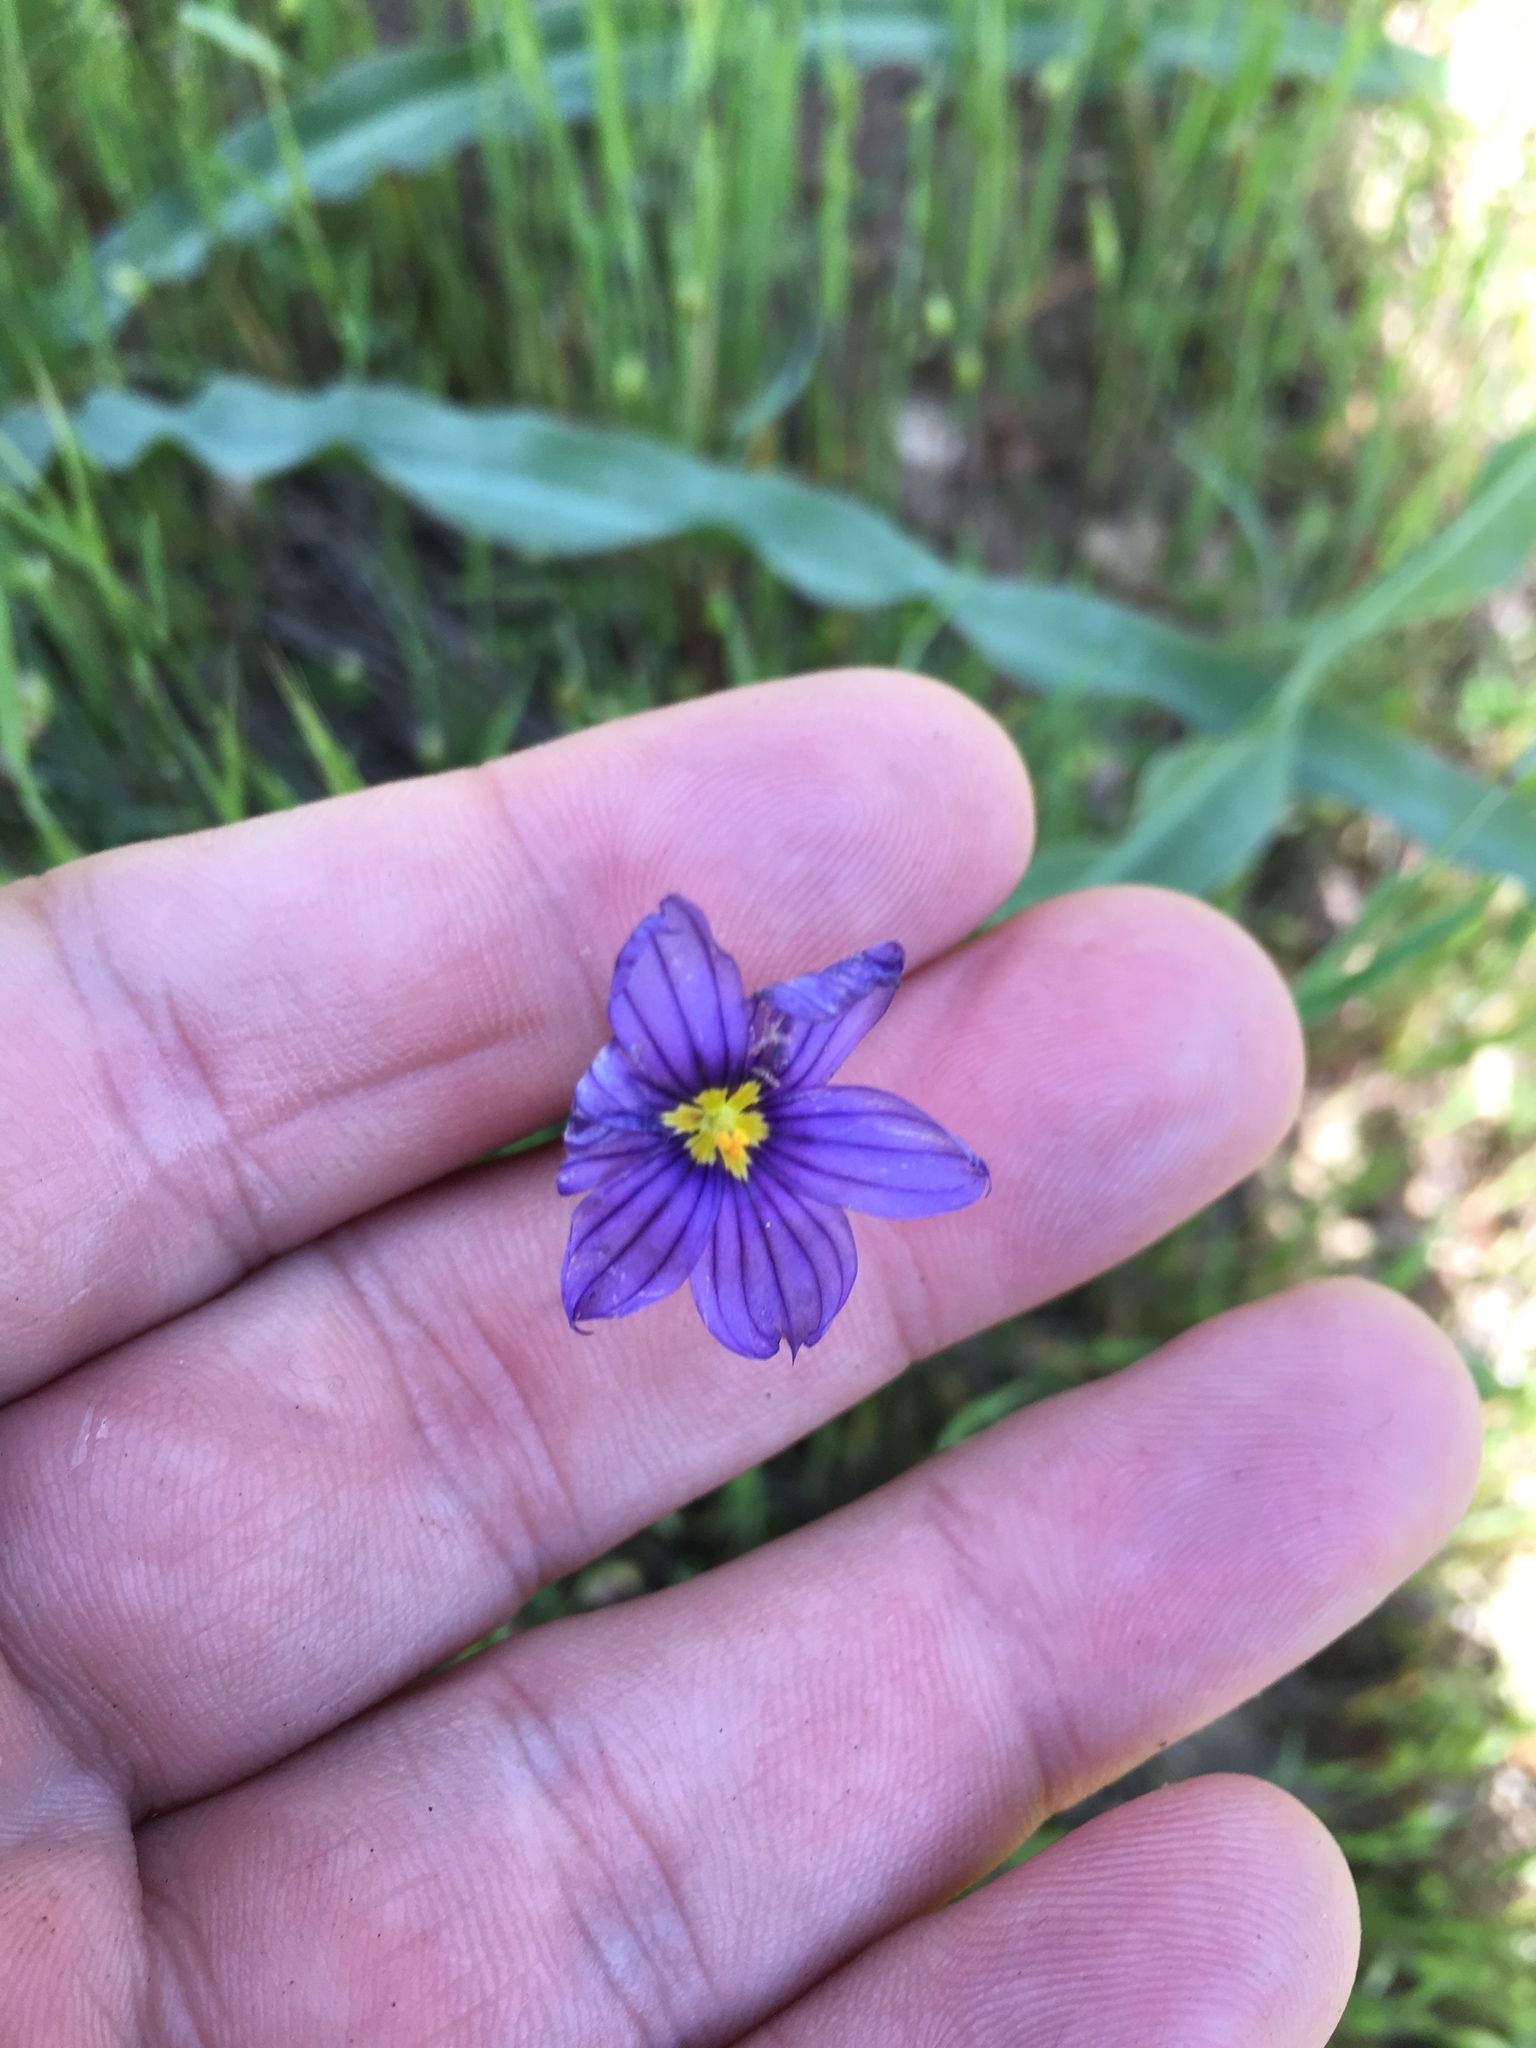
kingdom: Plantae
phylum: Tracheophyta
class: Liliopsida
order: Asparagales
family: Iridaceae
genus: Sisyrinchium
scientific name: Sisyrinchium bellum
